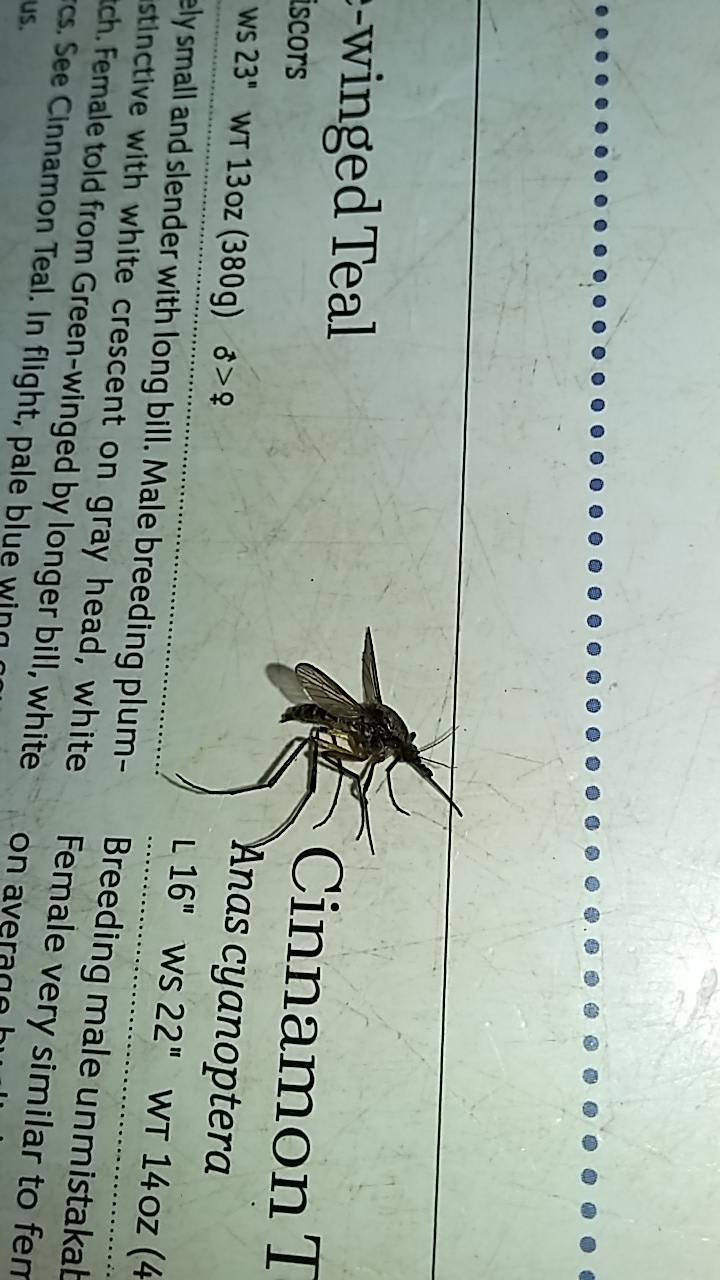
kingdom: Animalia
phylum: Arthropoda
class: Insecta
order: Diptera
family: Culicidae
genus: Psorophora
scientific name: Psorophora cyanescens
